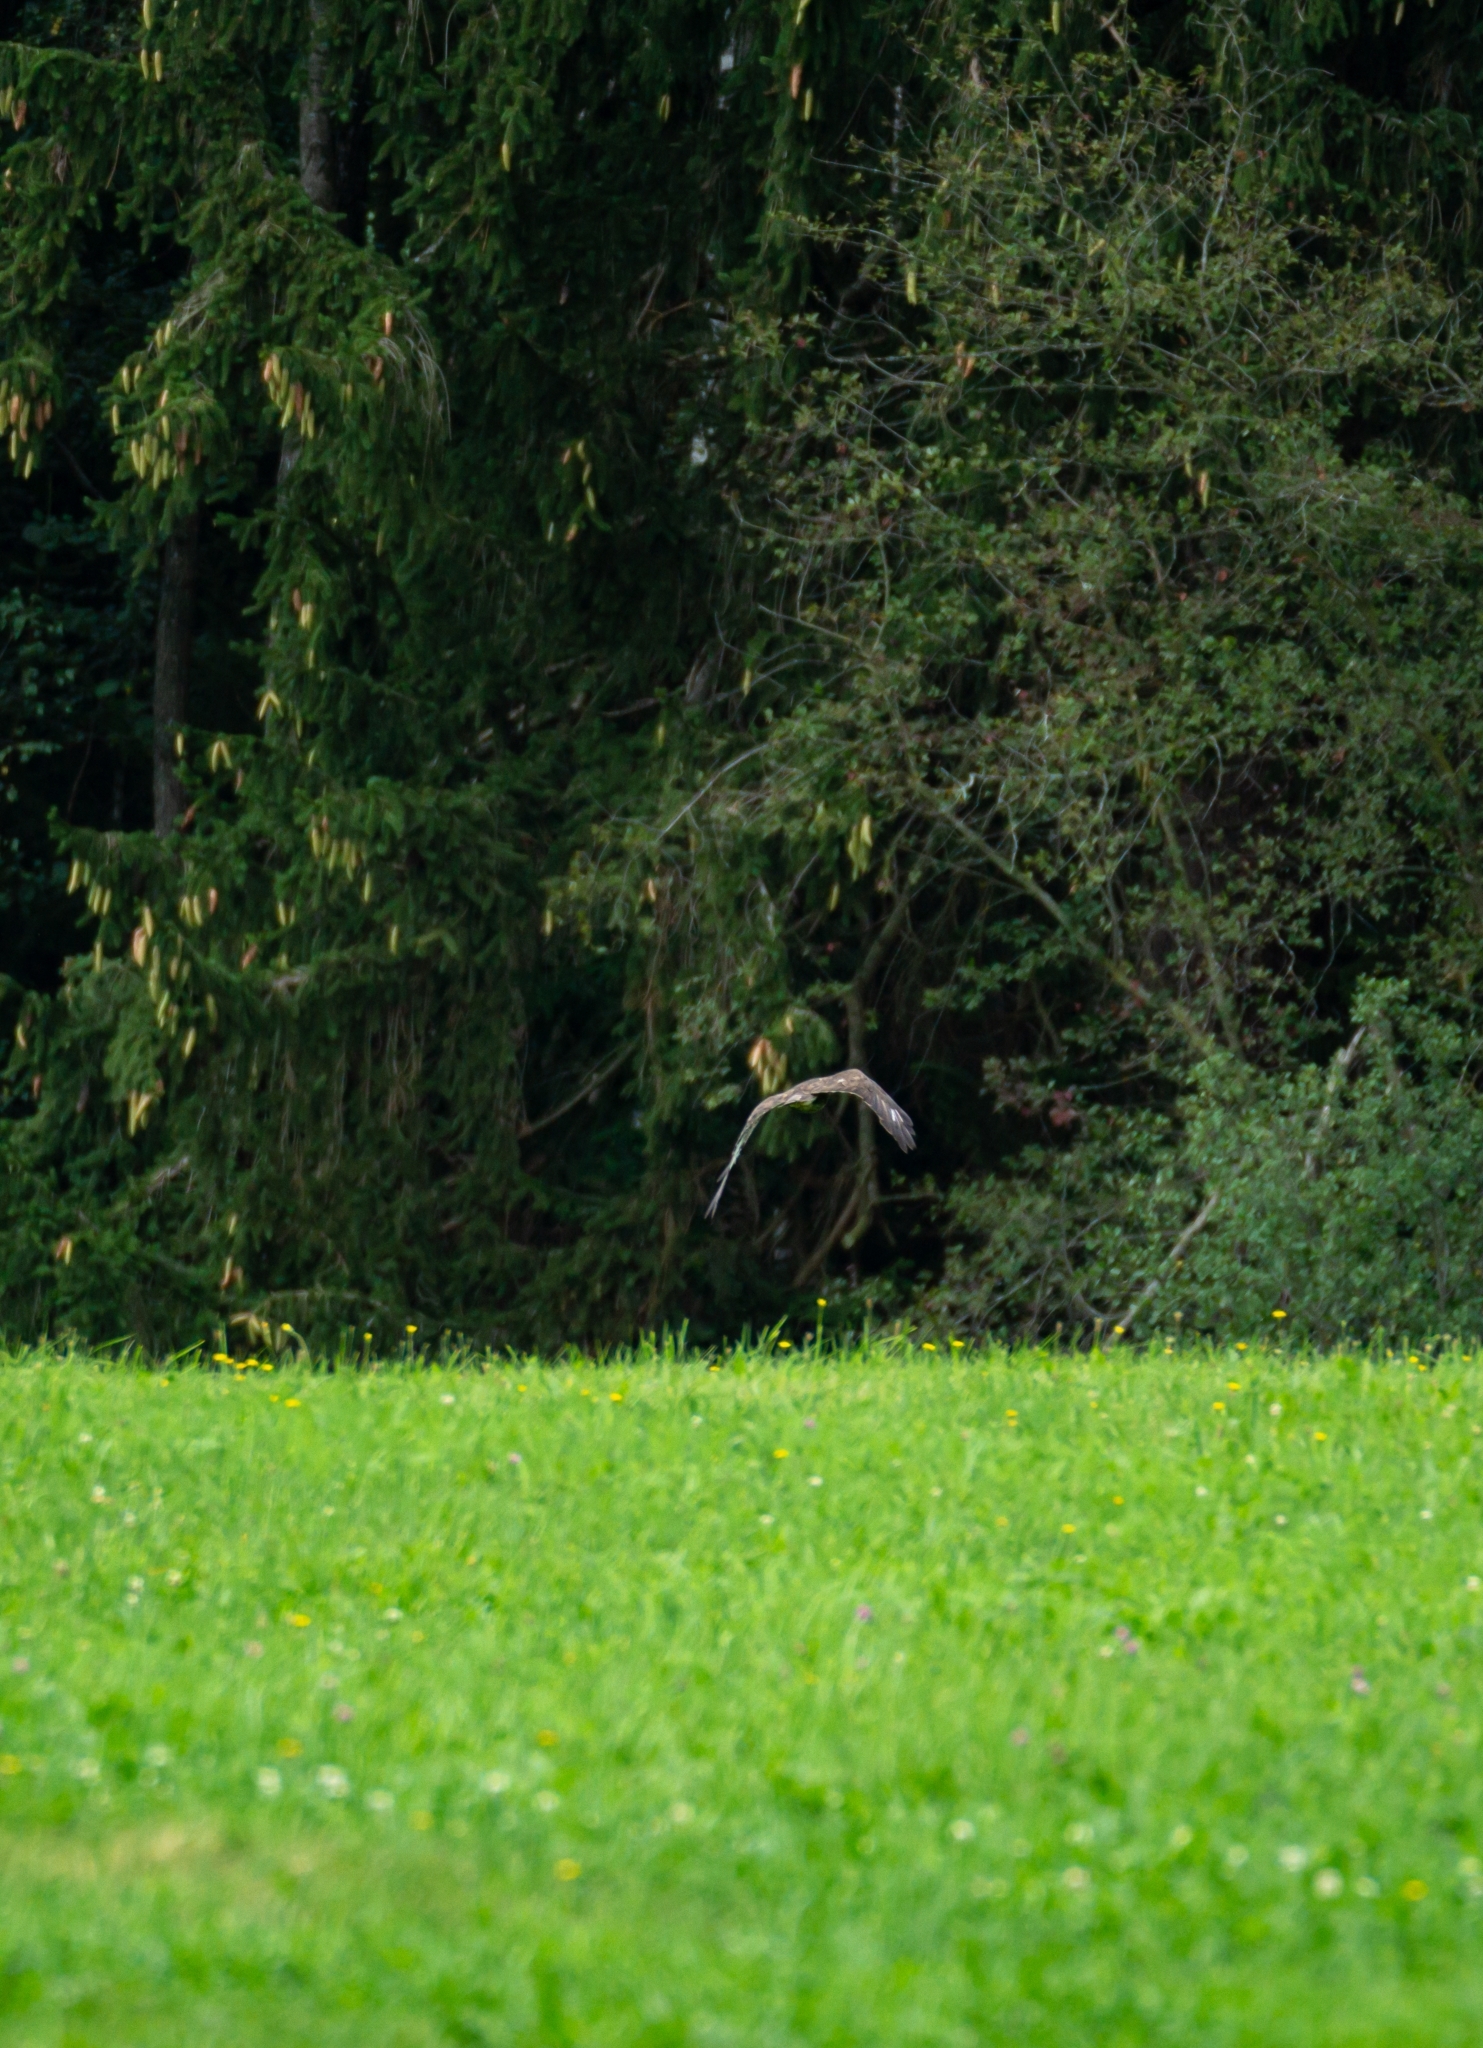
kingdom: Animalia
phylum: Chordata
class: Aves
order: Accipitriformes
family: Accipitridae
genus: Buteo
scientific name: Buteo buteo
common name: Common buzzard
